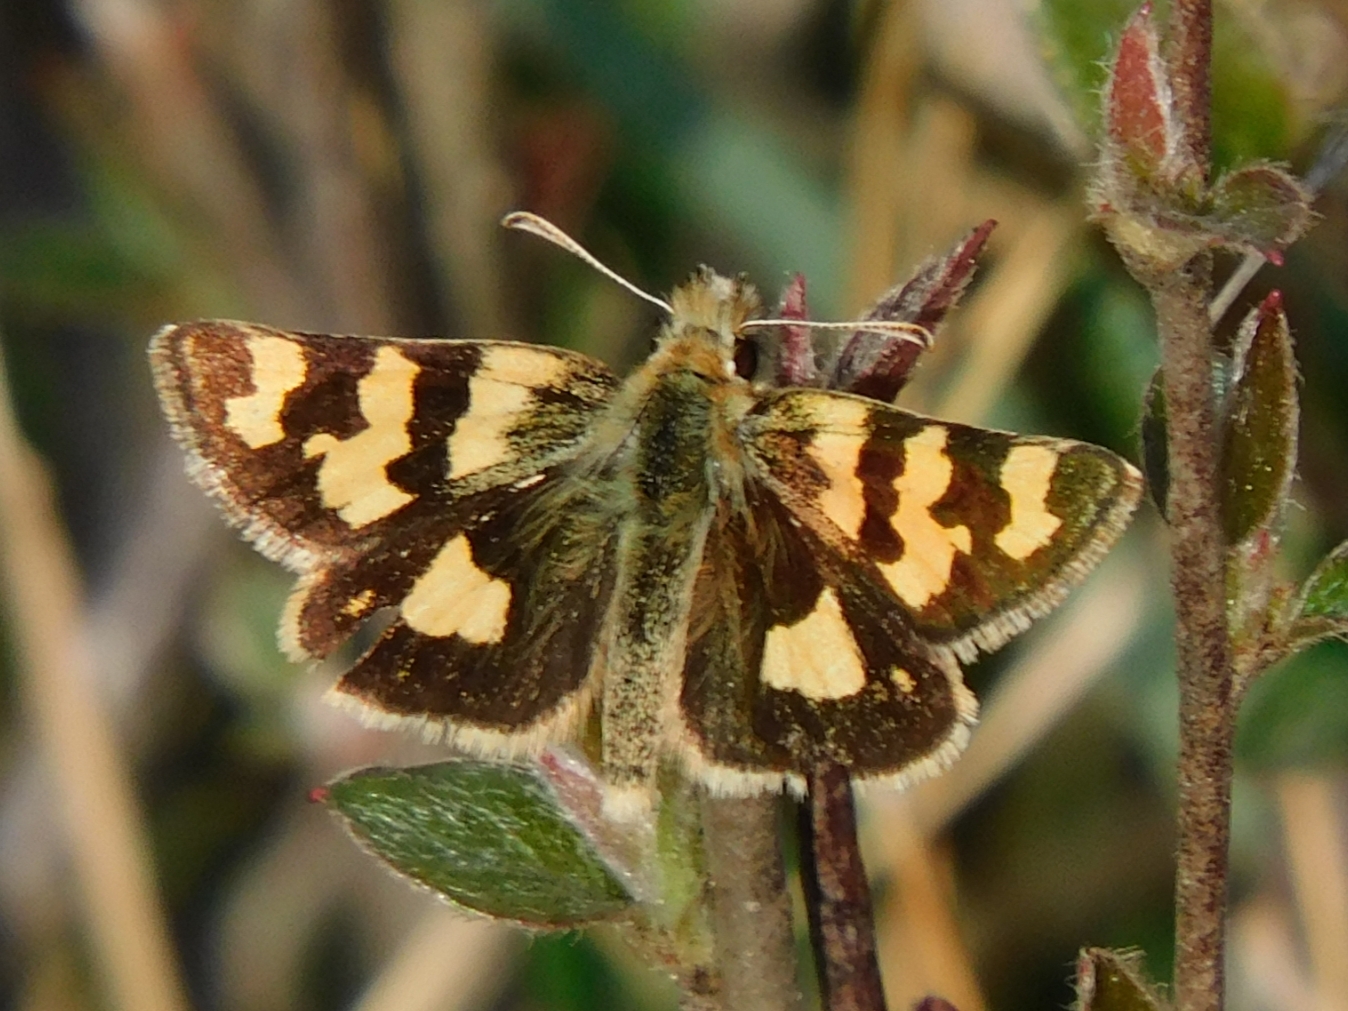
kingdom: Animalia
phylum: Arthropoda
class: Insecta
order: Lepidoptera
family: Hesperiidae
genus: Carterocephalus
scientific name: Carterocephalus avanti
